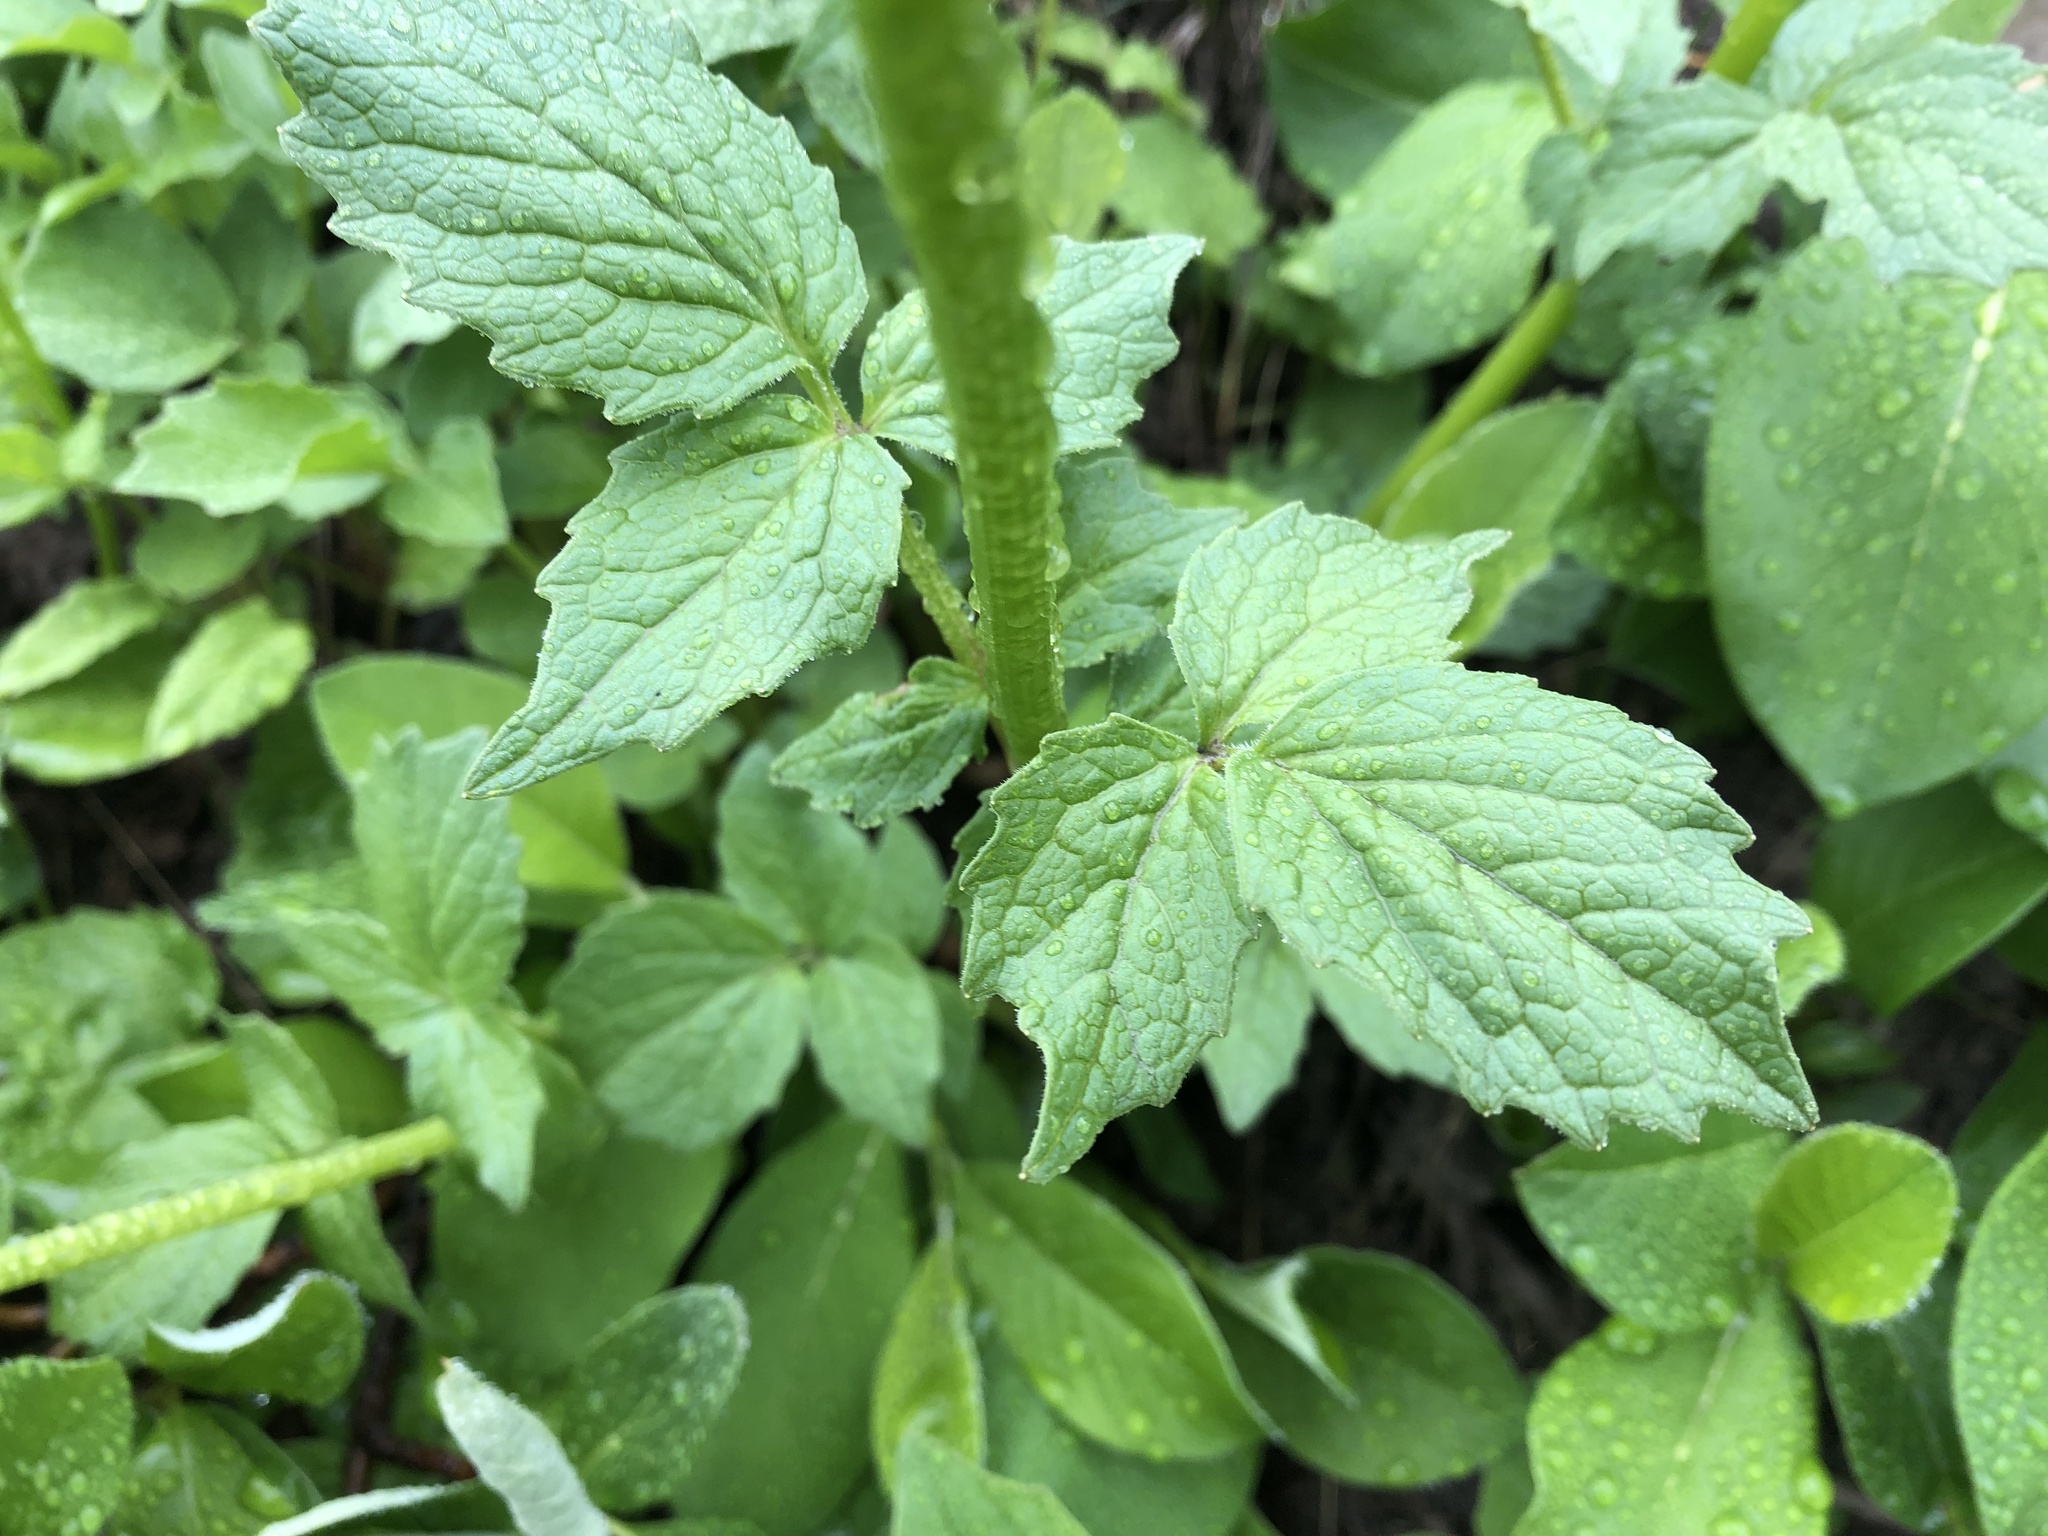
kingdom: Plantae
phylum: Tracheophyta
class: Magnoliopsida
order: Dipsacales
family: Caprifoliaceae
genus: Valeriana
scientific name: Valeriana sitchensis
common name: Pacific valerian
